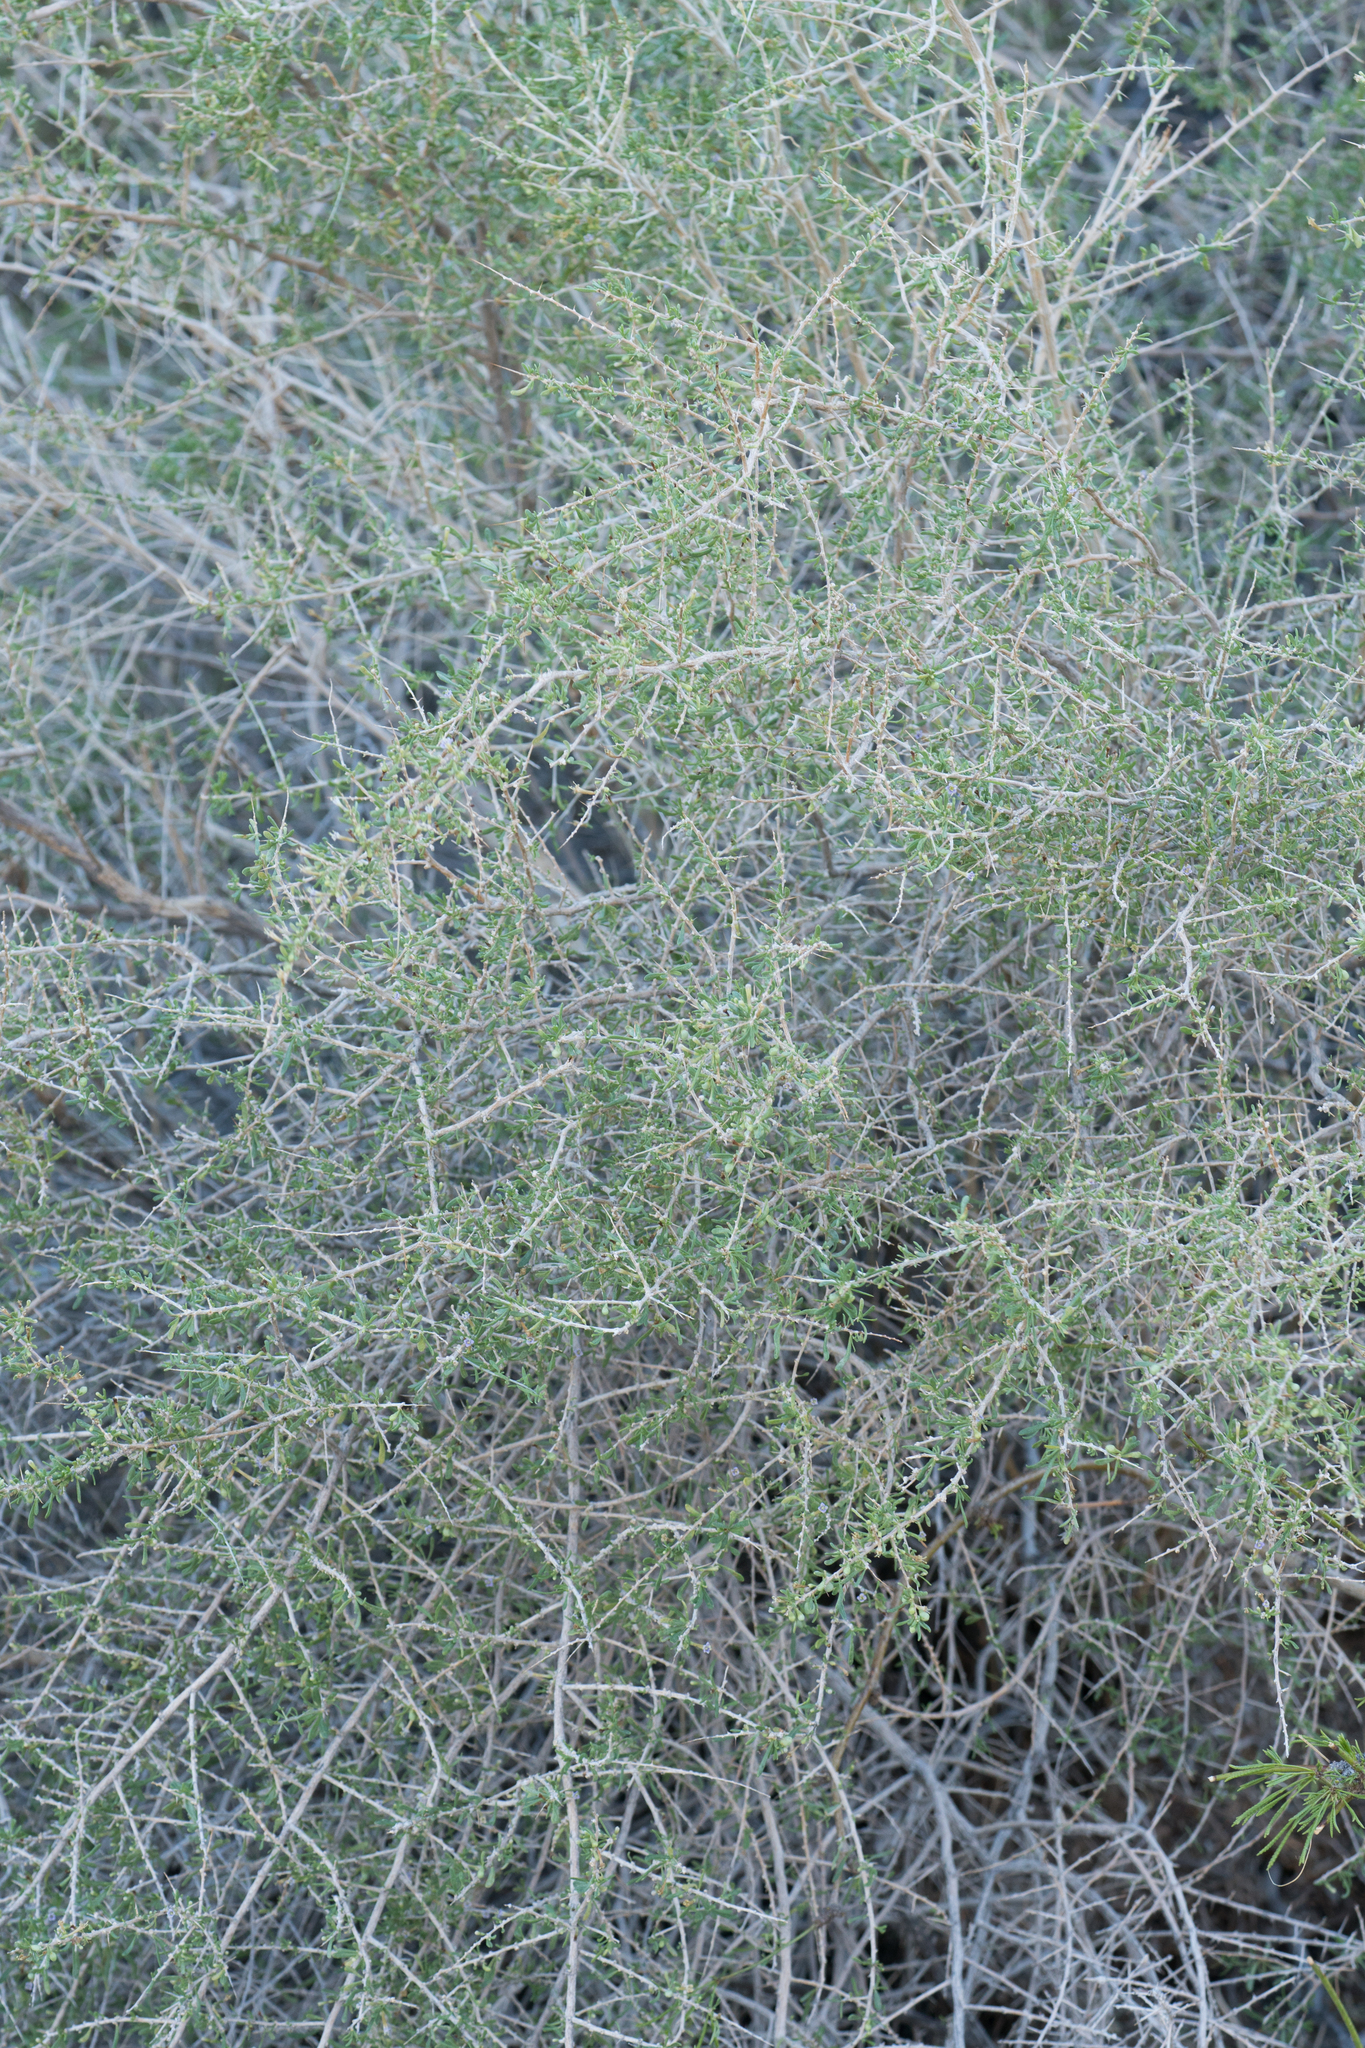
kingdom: Plantae
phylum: Tracheophyta
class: Magnoliopsida
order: Solanales
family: Solanaceae
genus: Lycium
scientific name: Lycium andersonii
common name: Water-jacket
